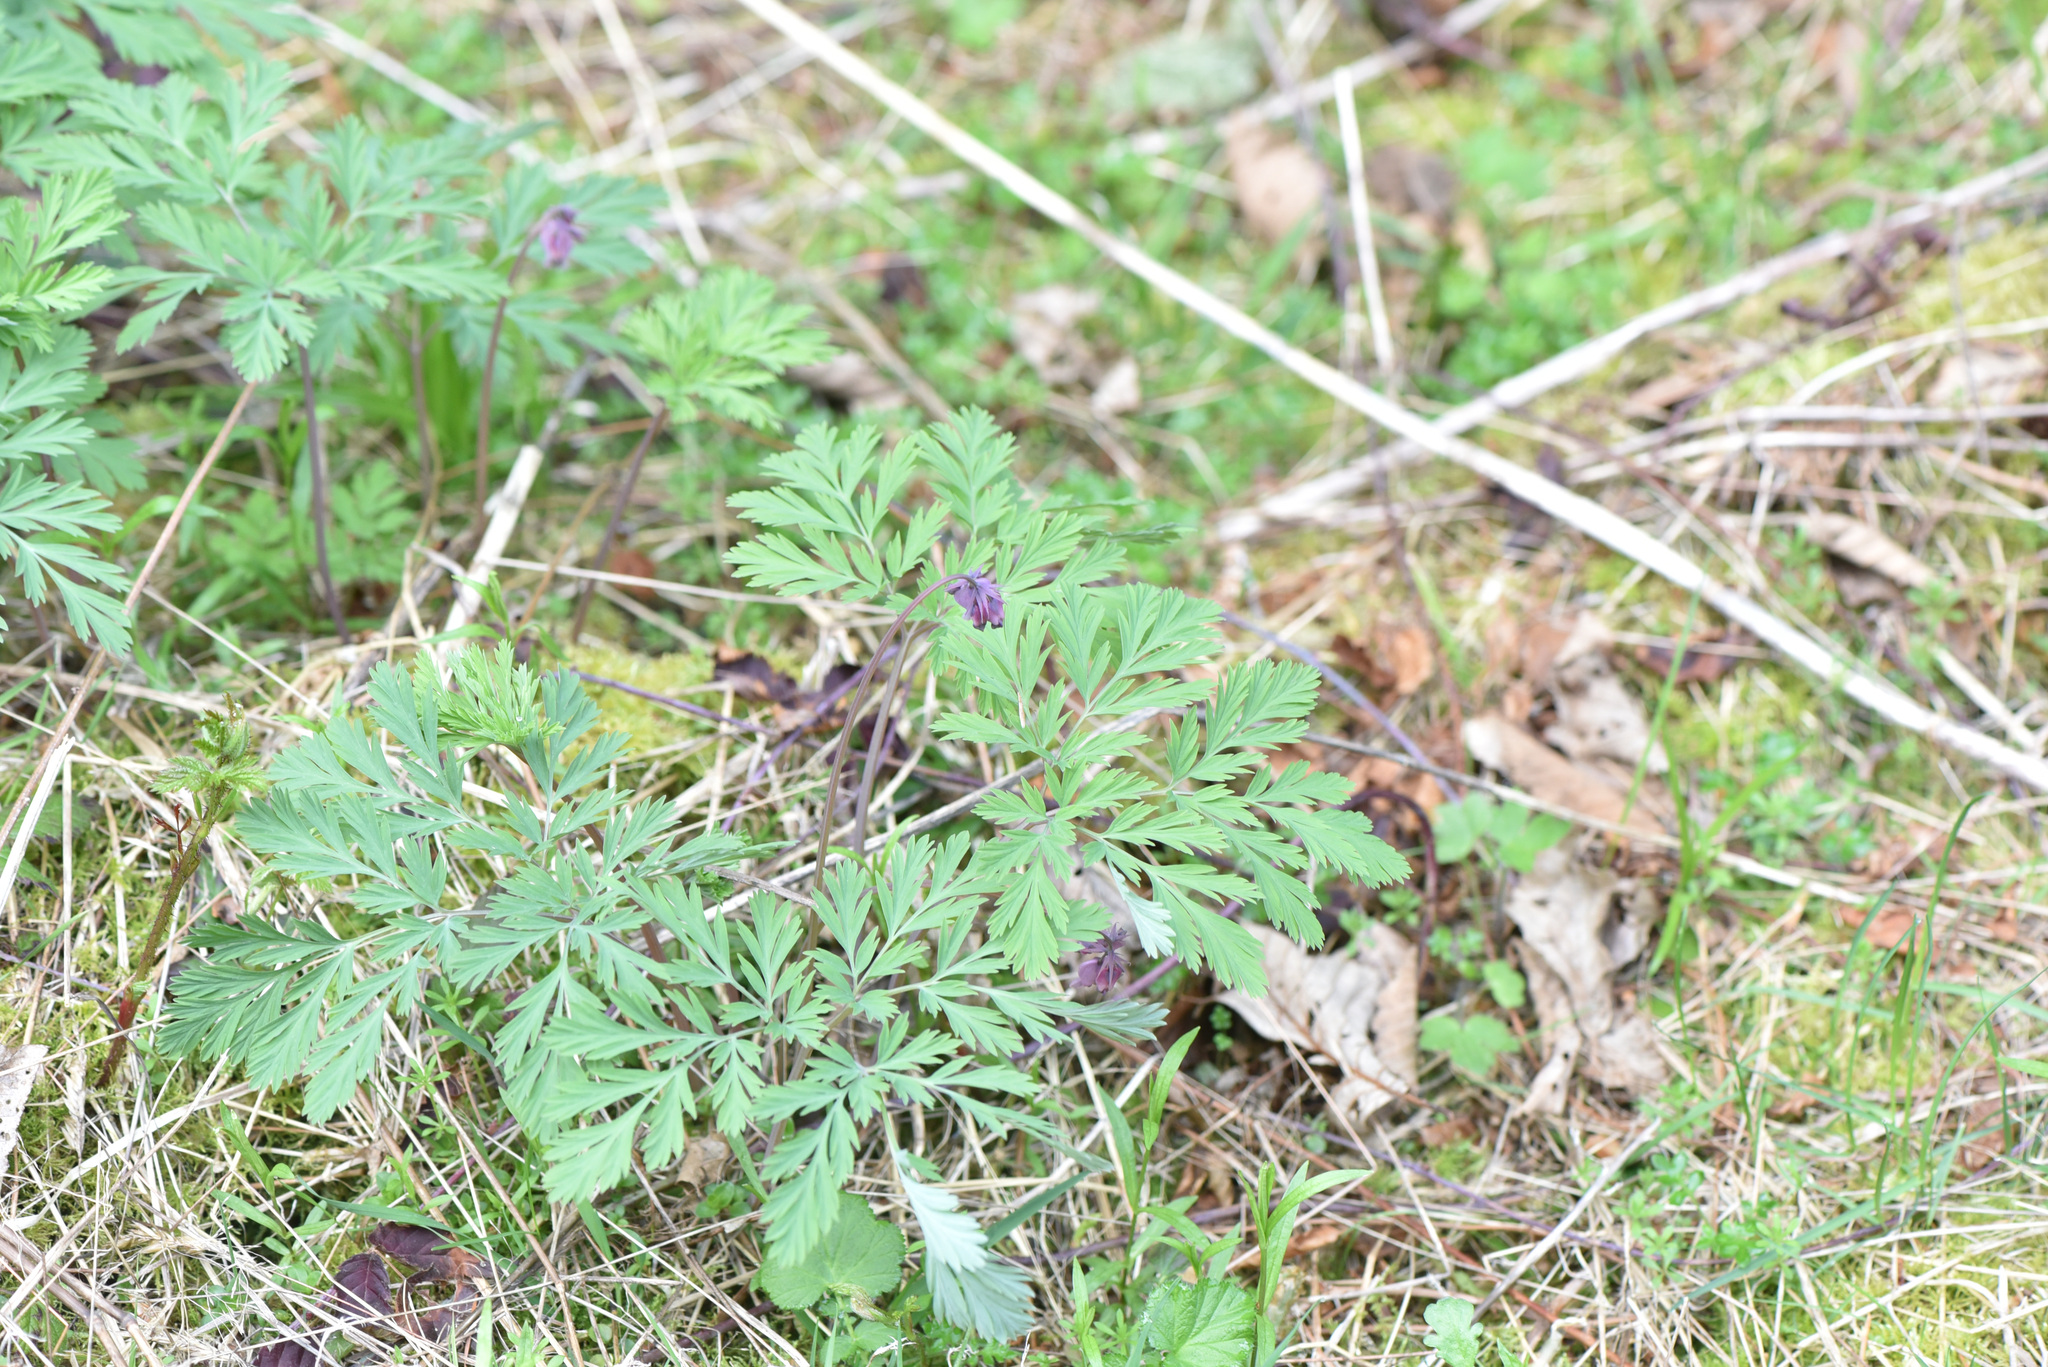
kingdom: Plantae
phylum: Tracheophyta
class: Magnoliopsida
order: Ranunculales
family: Papaveraceae
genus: Dicentra
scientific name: Dicentra formosa
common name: Bleeding-heart
